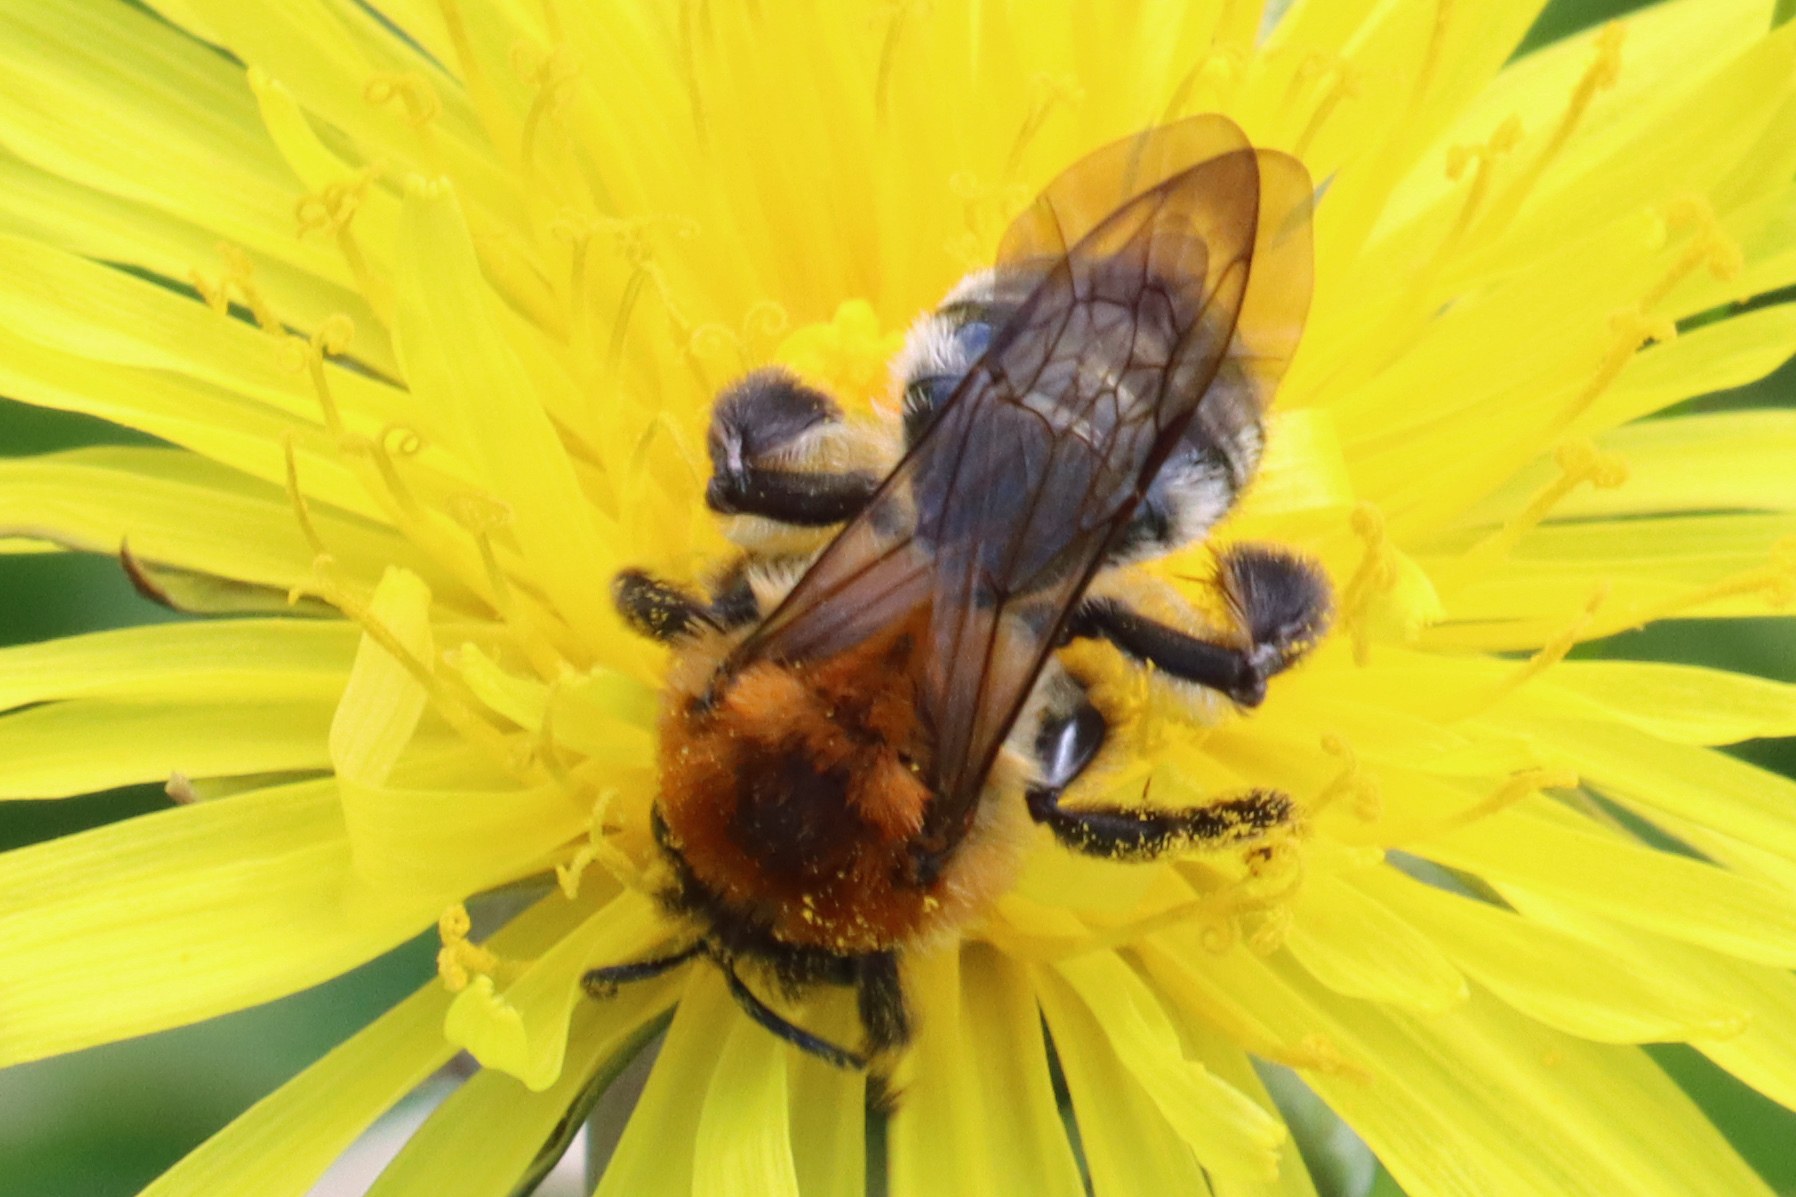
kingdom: Animalia
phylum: Arthropoda
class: Insecta
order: Hymenoptera
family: Andrenidae
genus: Andrena
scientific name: Andrena nitida
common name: Grey-patched mining bee
